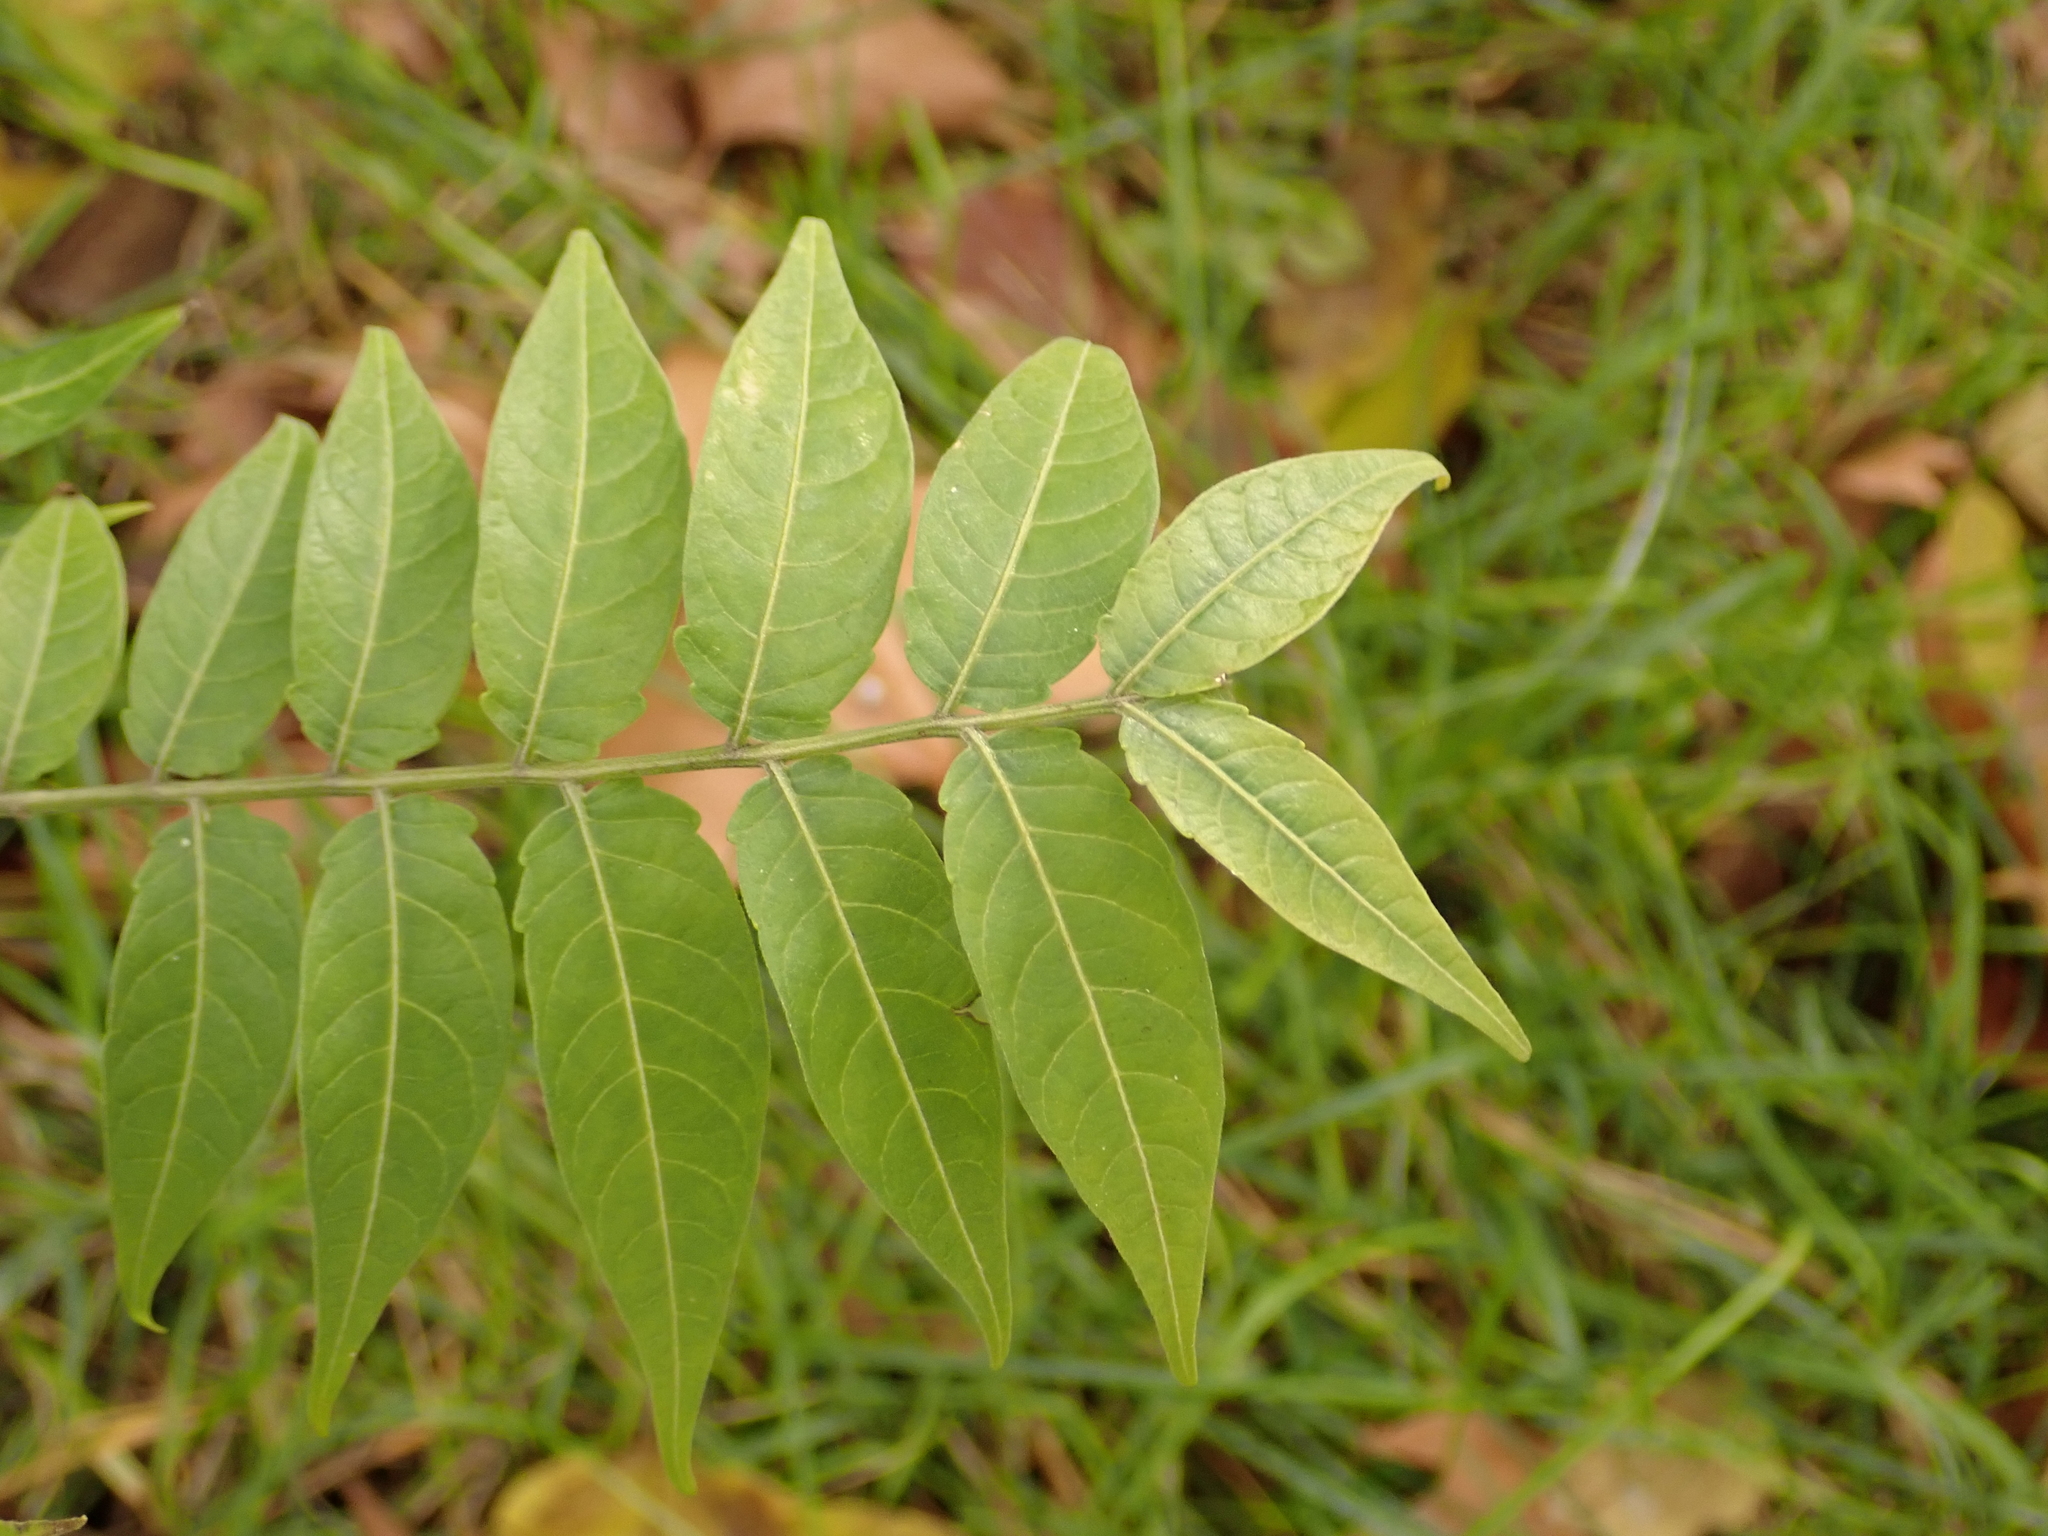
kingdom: Plantae
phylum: Tracheophyta
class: Magnoliopsida
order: Sapindales
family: Simaroubaceae
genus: Ailanthus
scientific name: Ailanthus altissima
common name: Tree-of-heaven
